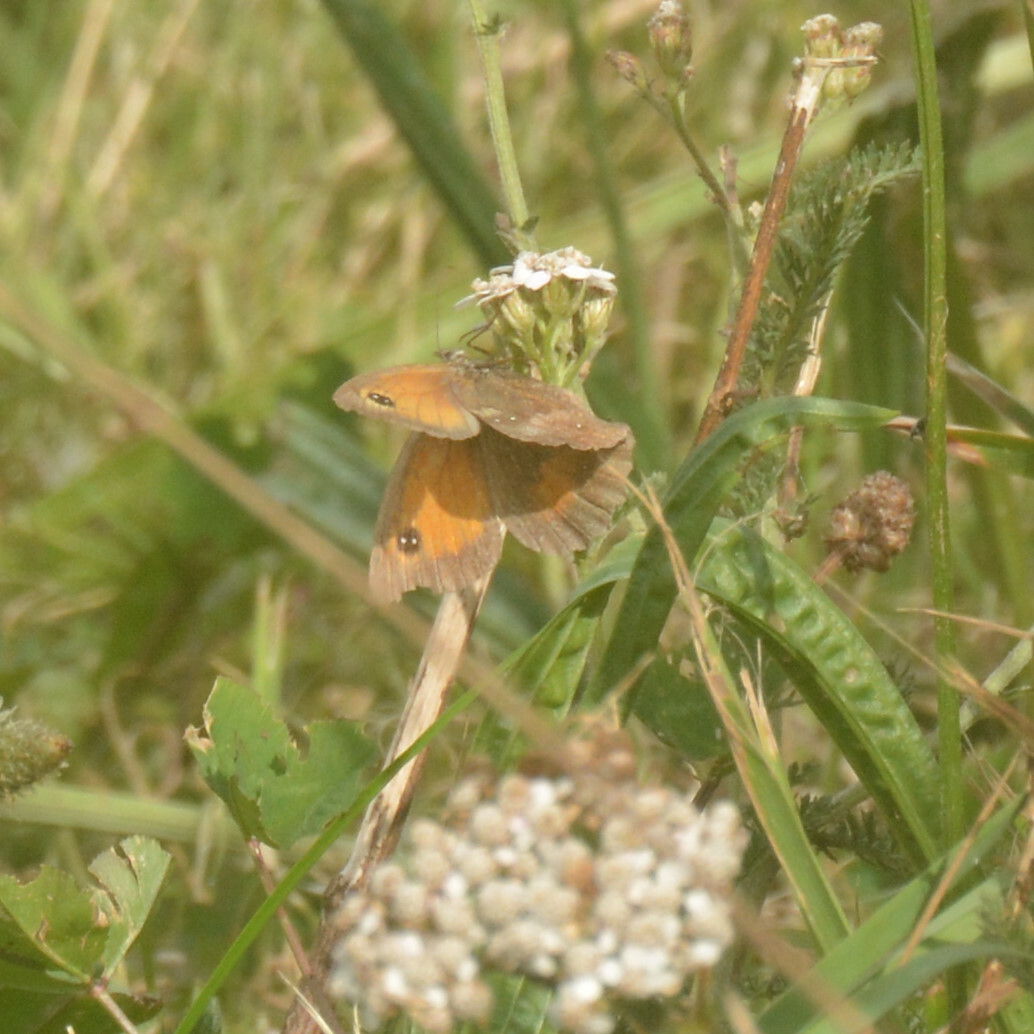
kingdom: Animalia
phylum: Arthropoda
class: Insecta
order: Lepidoptera
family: Nymphalidae
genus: Pyronia
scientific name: Pyronia tithonus
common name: Gatekeeper
